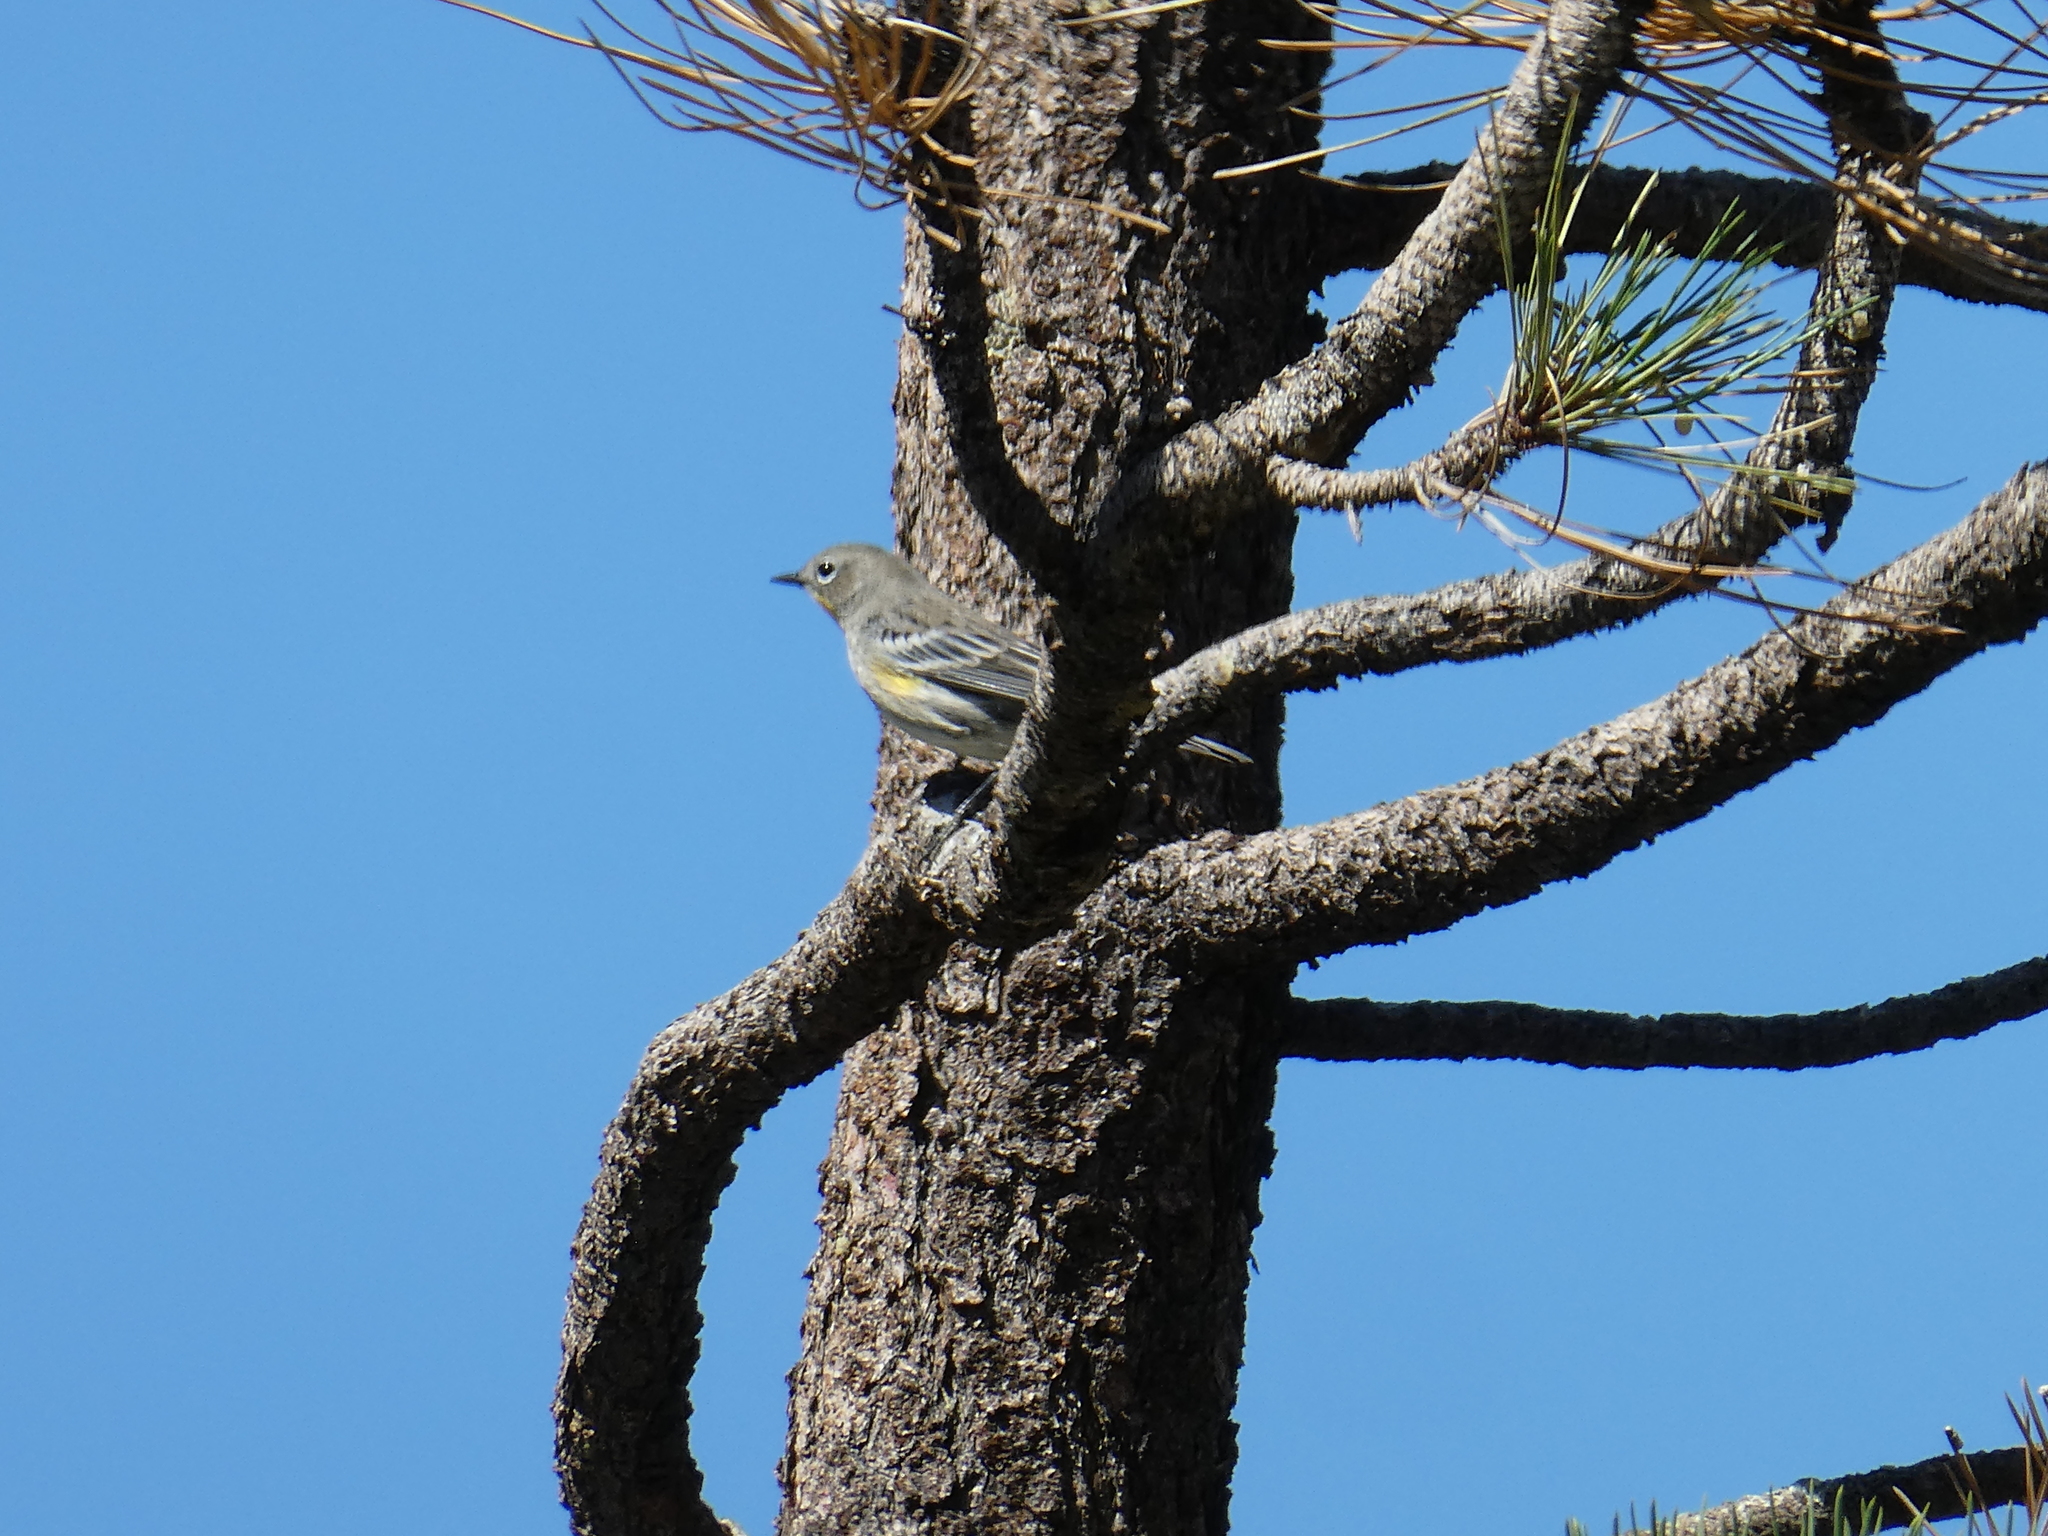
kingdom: Animalia
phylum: Chordata
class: Aves
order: Passeriformes
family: Parulidae
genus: Setophaga
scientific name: Setophaga coronata
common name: Myrtle warbler
